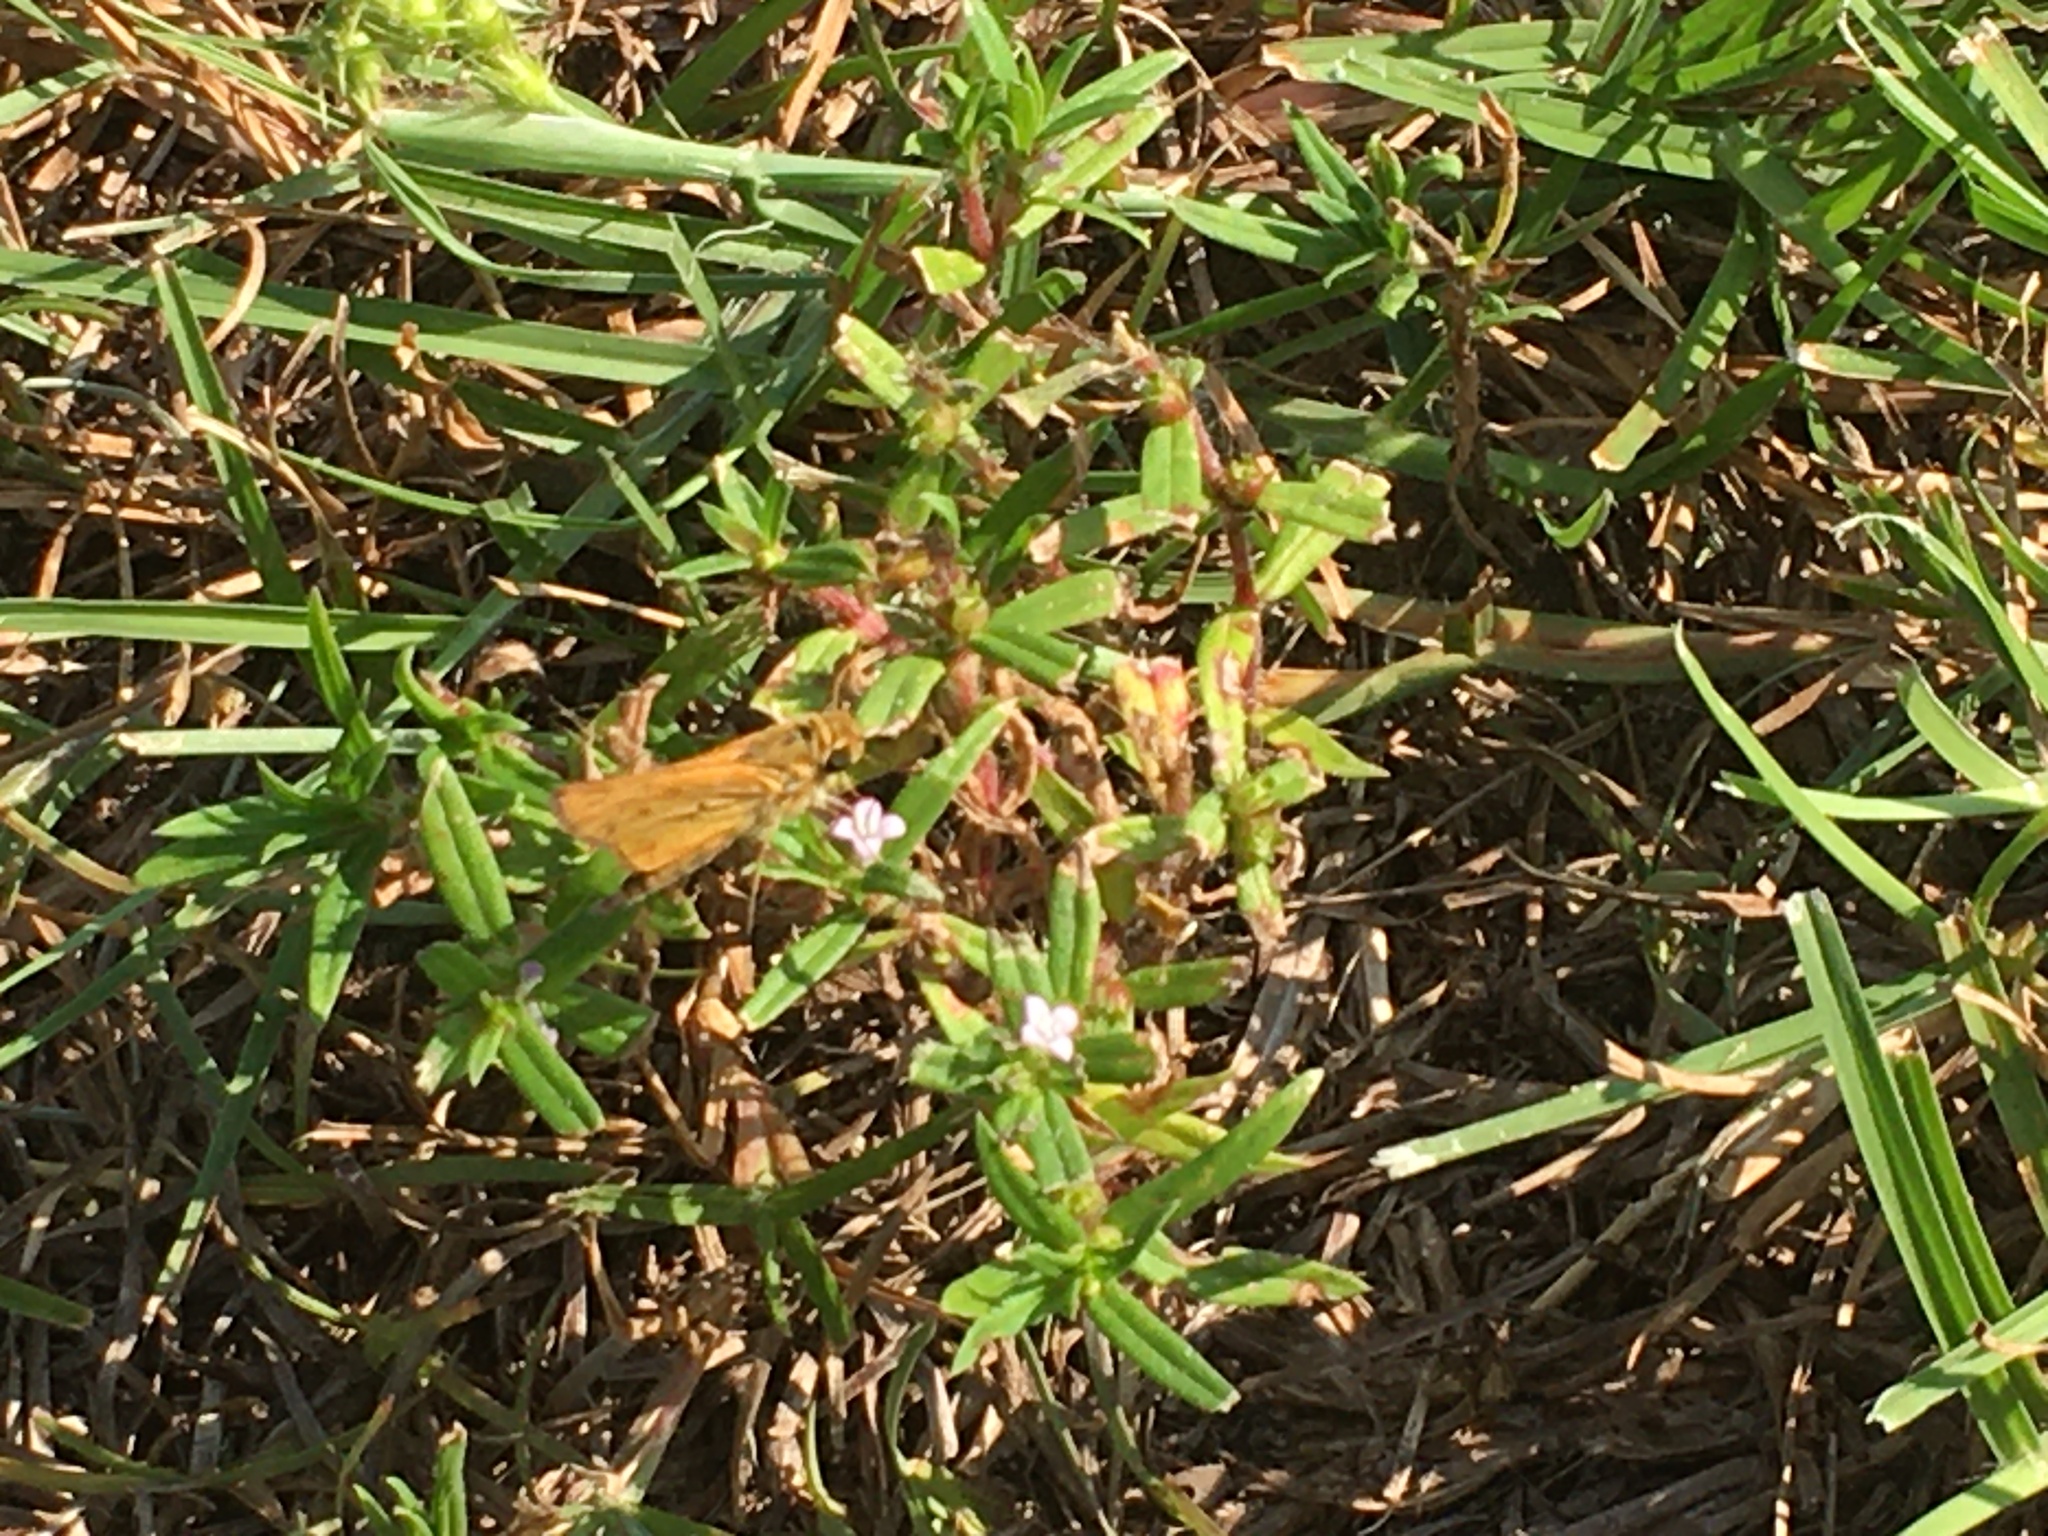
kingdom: Animalia
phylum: Arthropoda
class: Insecta
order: Lepidoptera
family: Hesperiidae
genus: Hylephila
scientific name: Hylephila phyleus
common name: Fiery skipper
